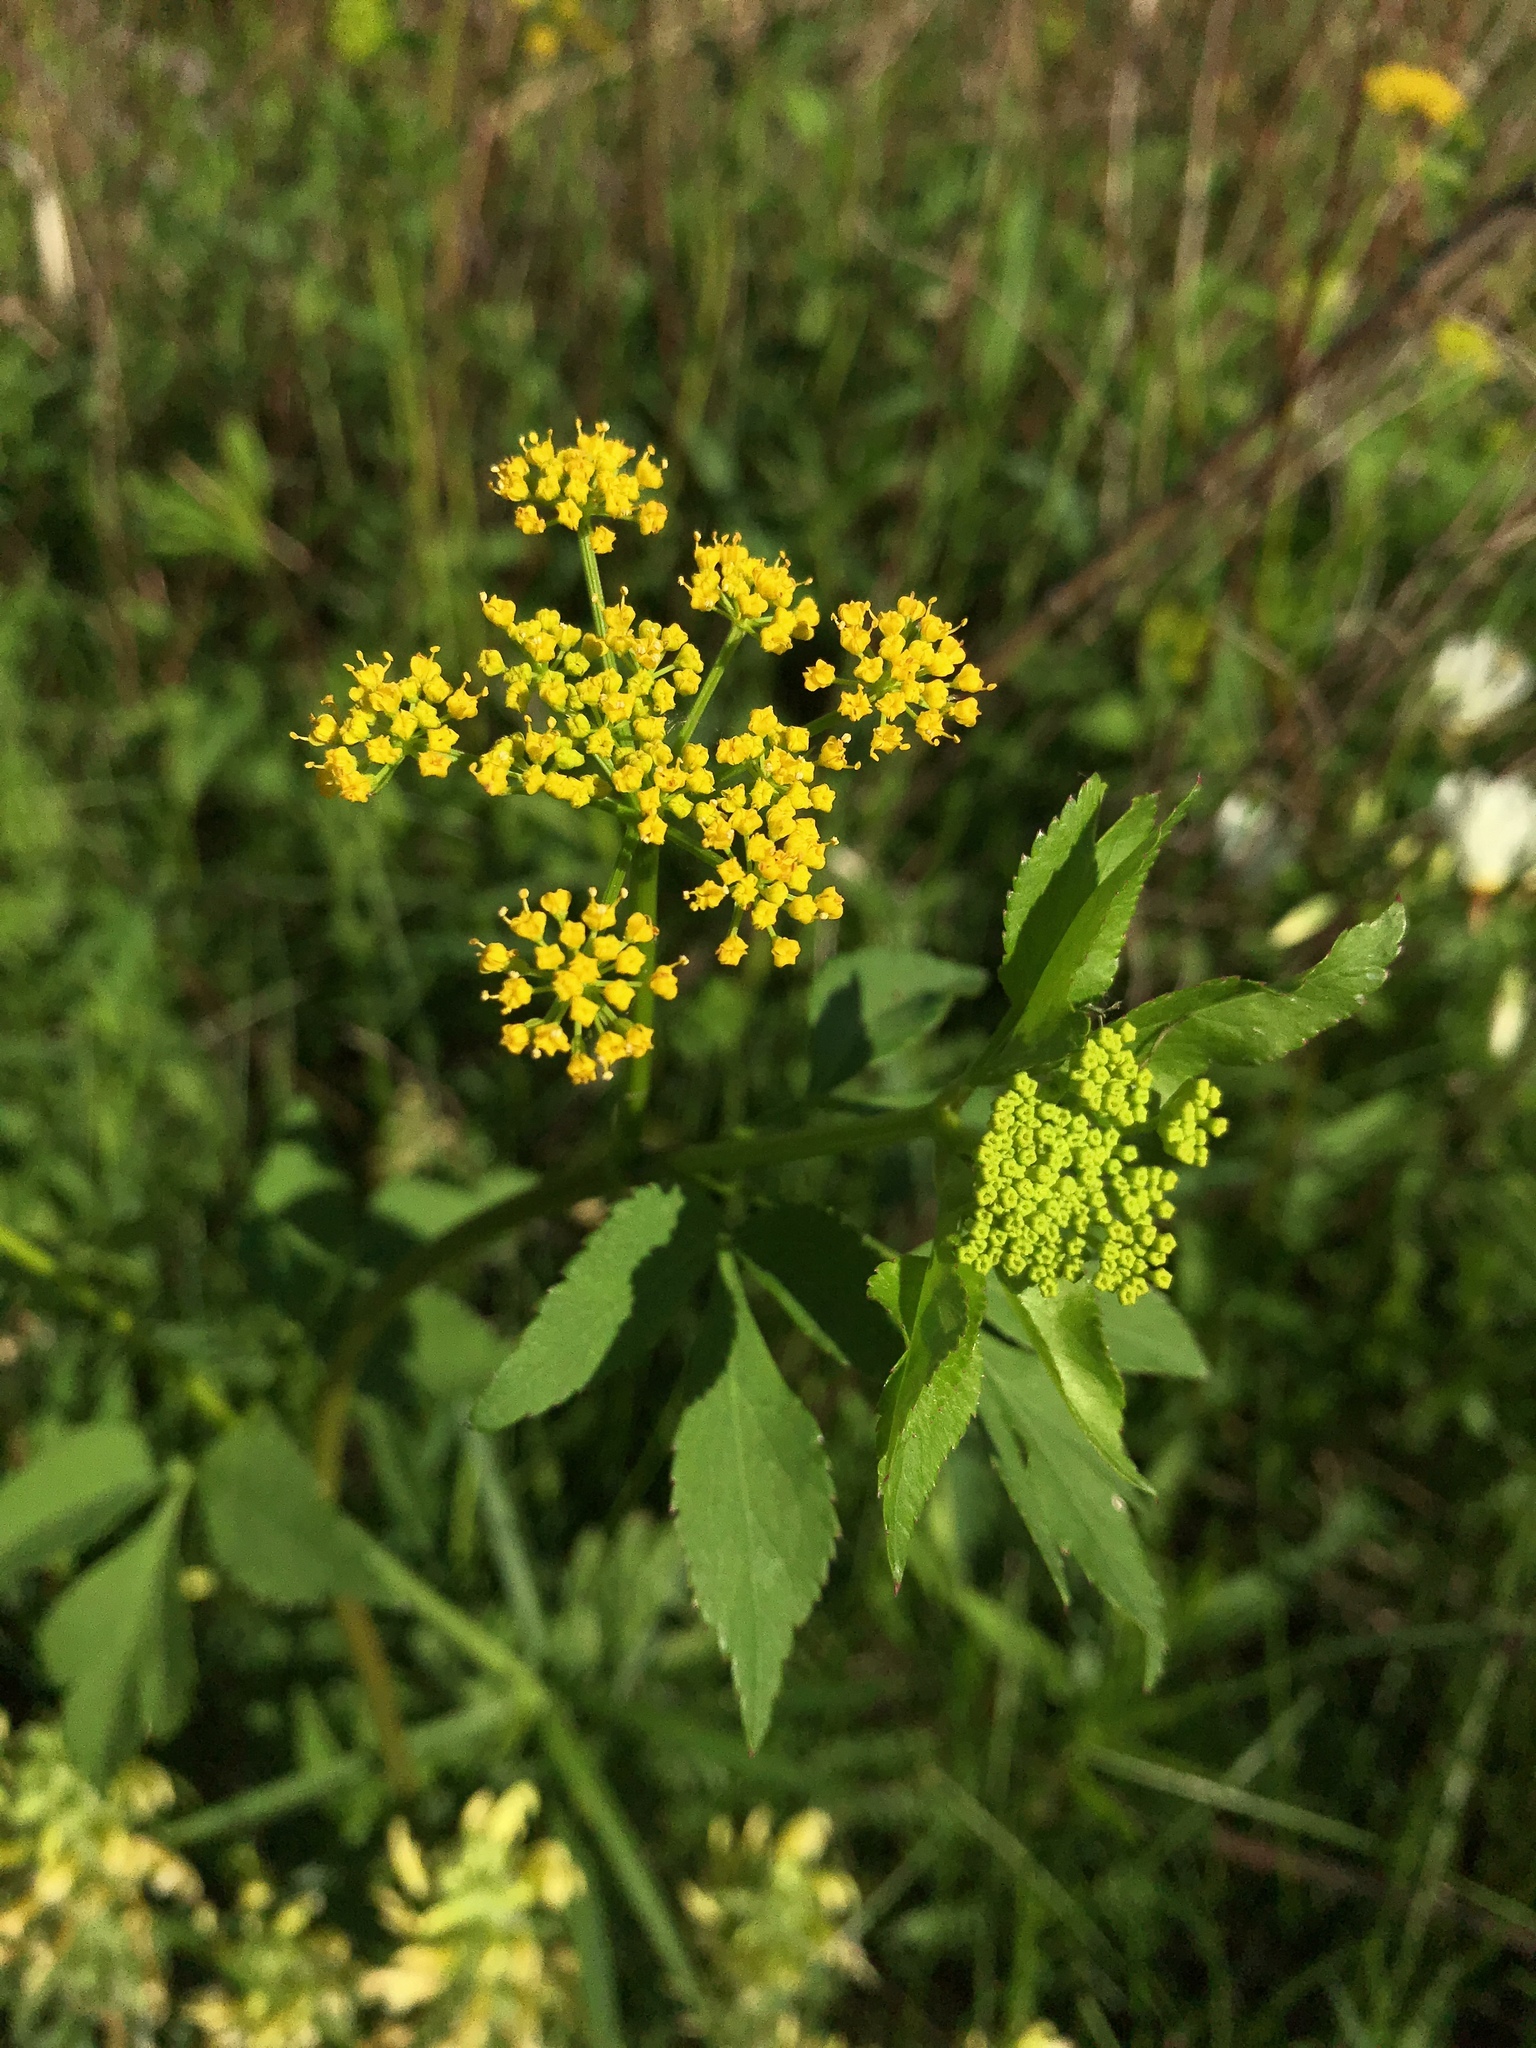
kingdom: Plantae
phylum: Tracheophyta
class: Magnoliopsida
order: Apiales
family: Apiaceae
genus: Zizia
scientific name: Zizia aurea
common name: Golden alexanders
